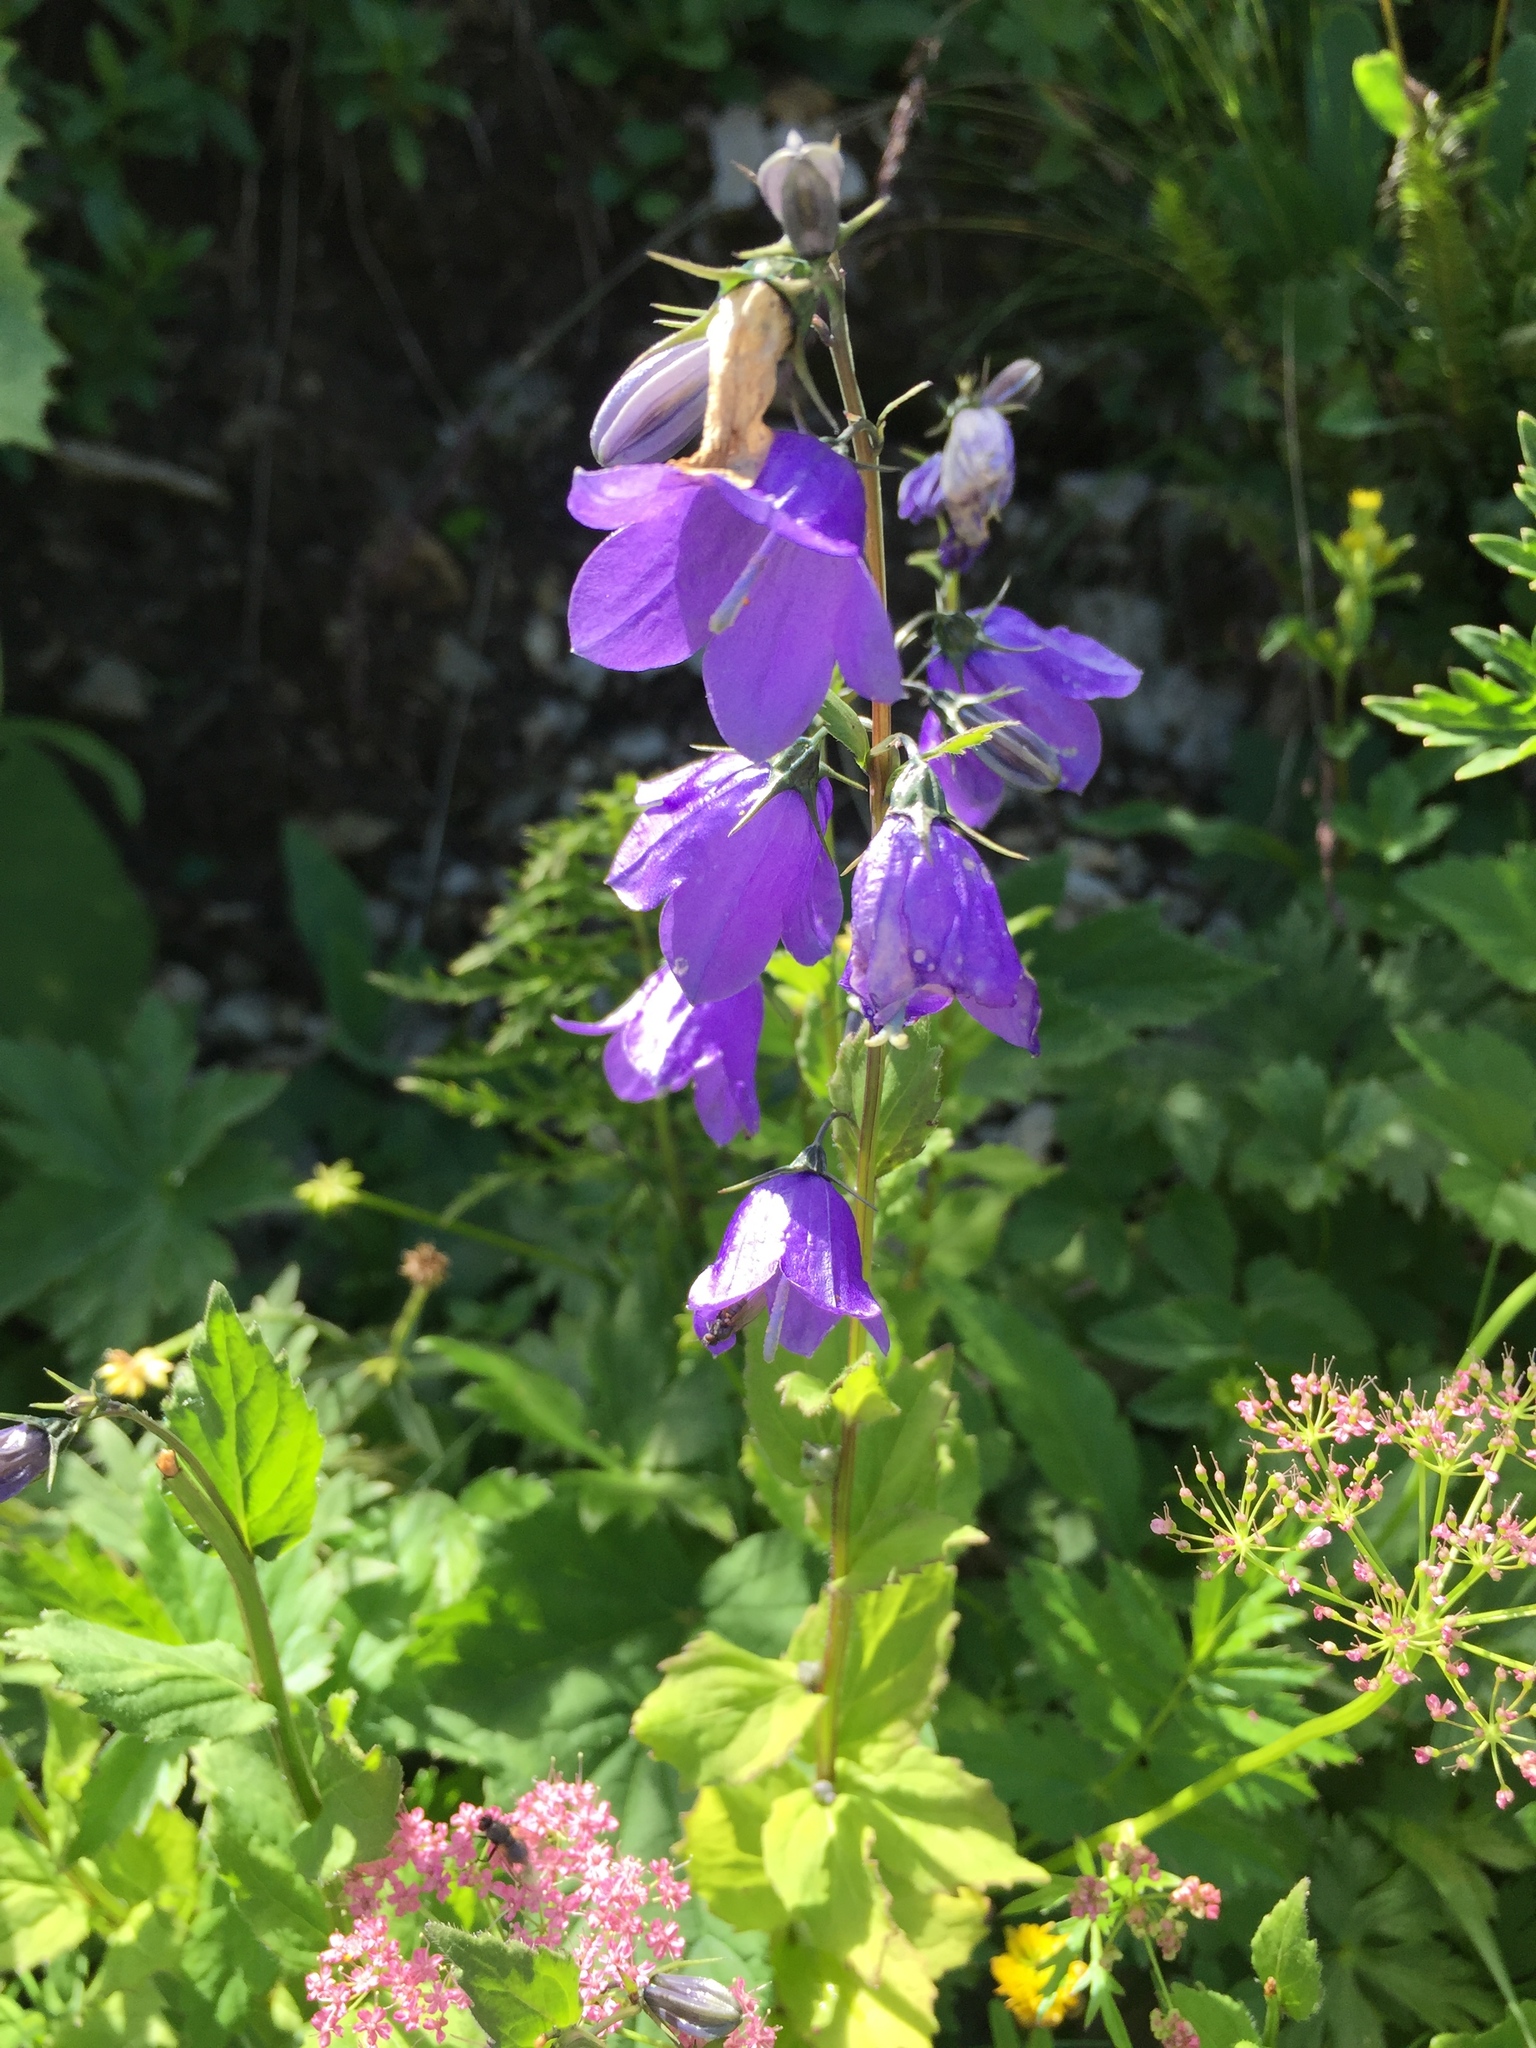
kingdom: Plantae
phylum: Tracheophyta
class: Magnoliopsida
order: Asterales
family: Campanulaceae
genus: Campanula
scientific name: Campanula rhomboidalis
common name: Broad-leaved harebell
